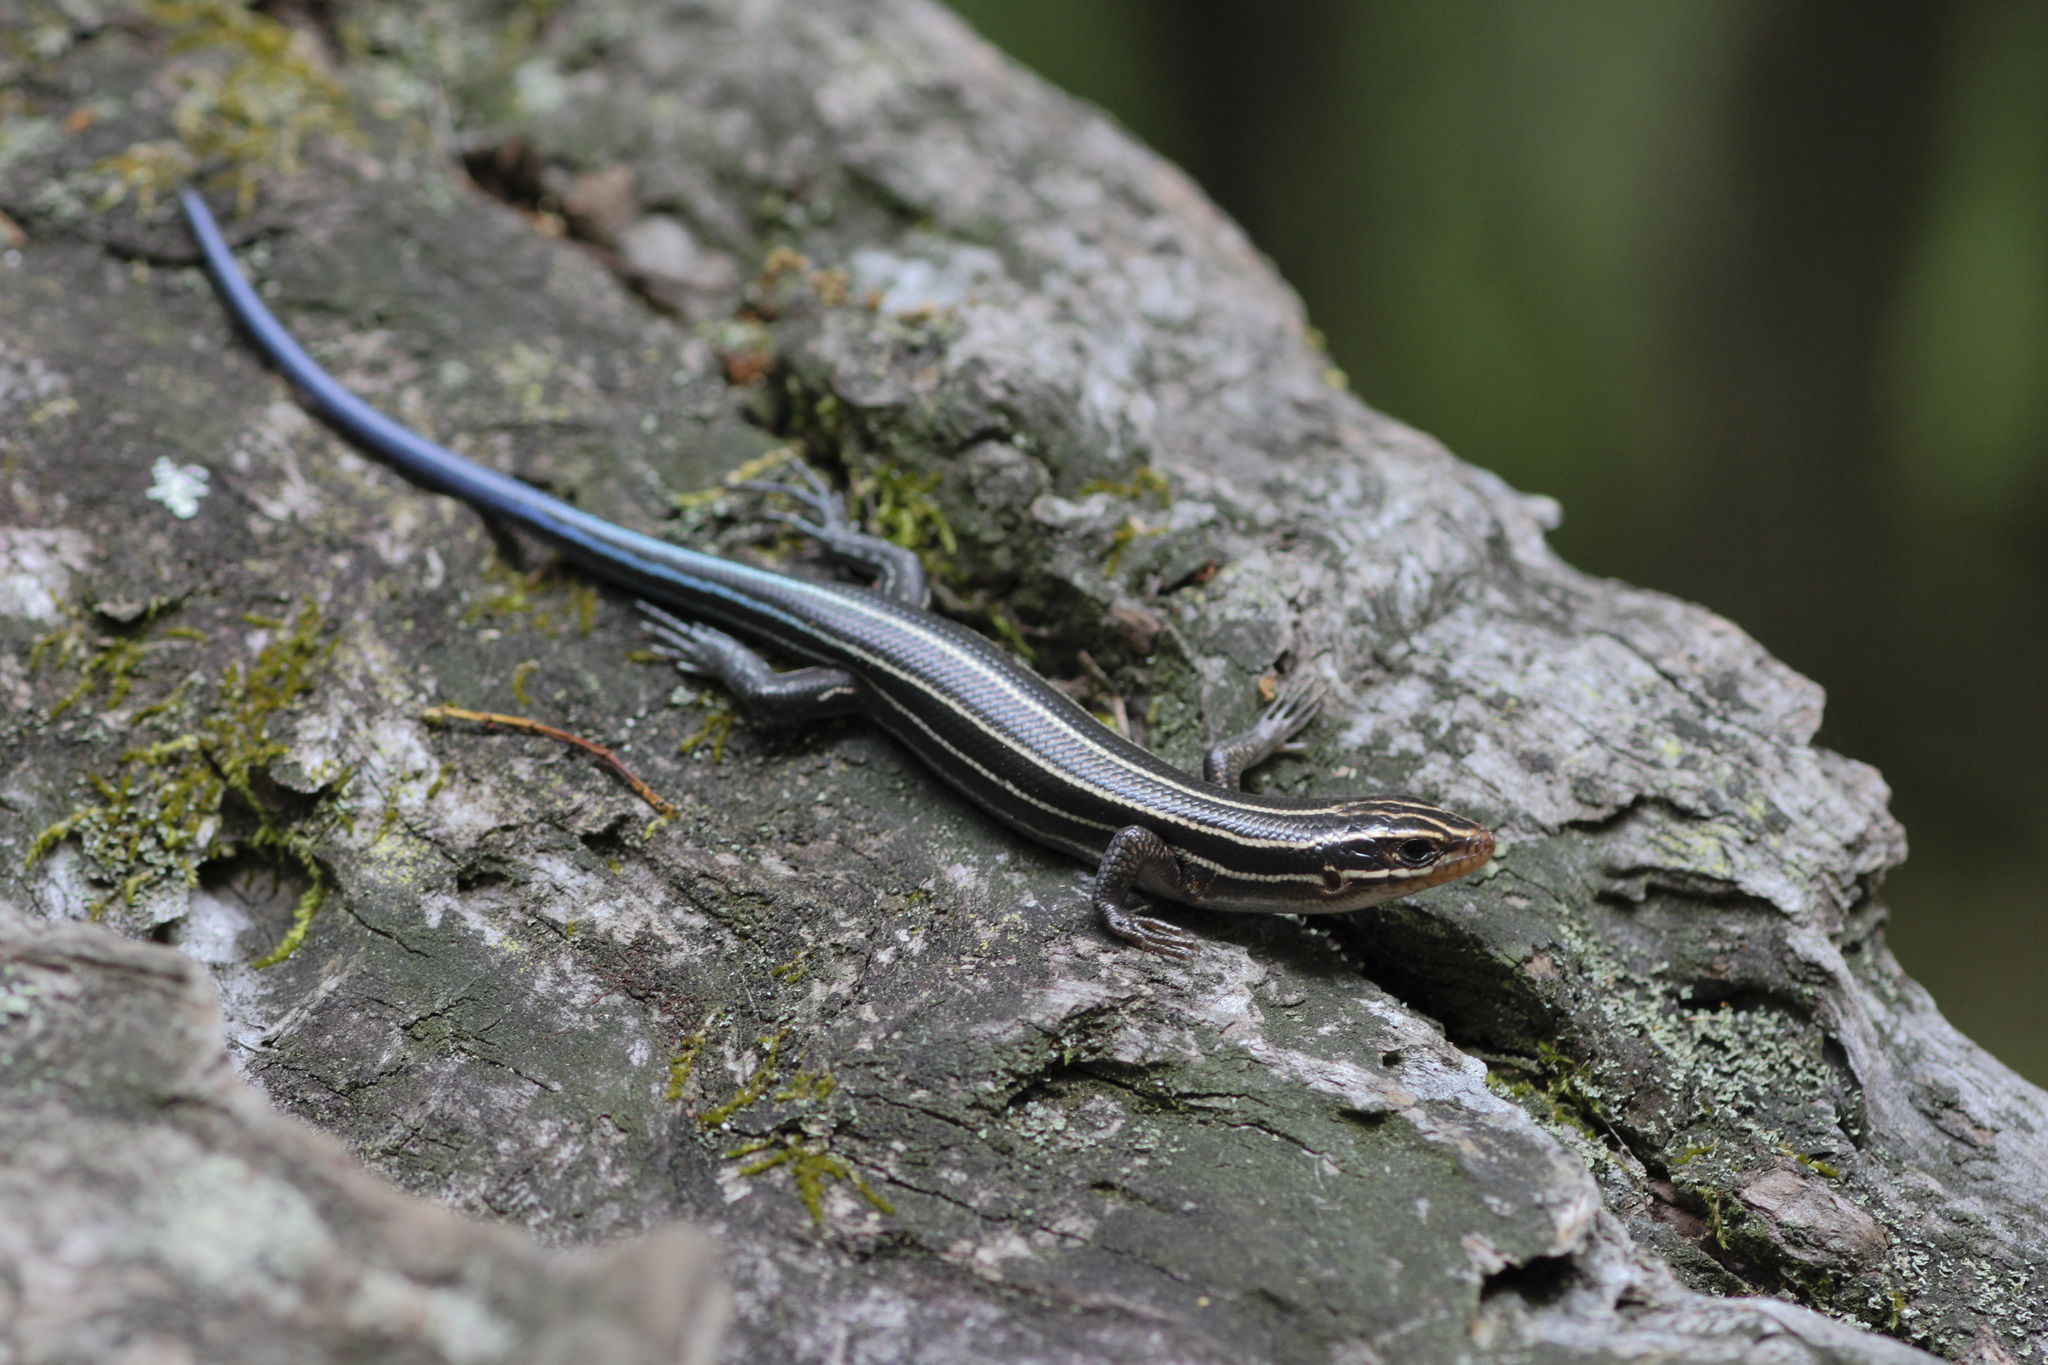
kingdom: Animalia
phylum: Chordata
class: Squamata
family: Scincidae
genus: Plestiodon
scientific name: Plestiodon laticeps
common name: Broadhead skink
